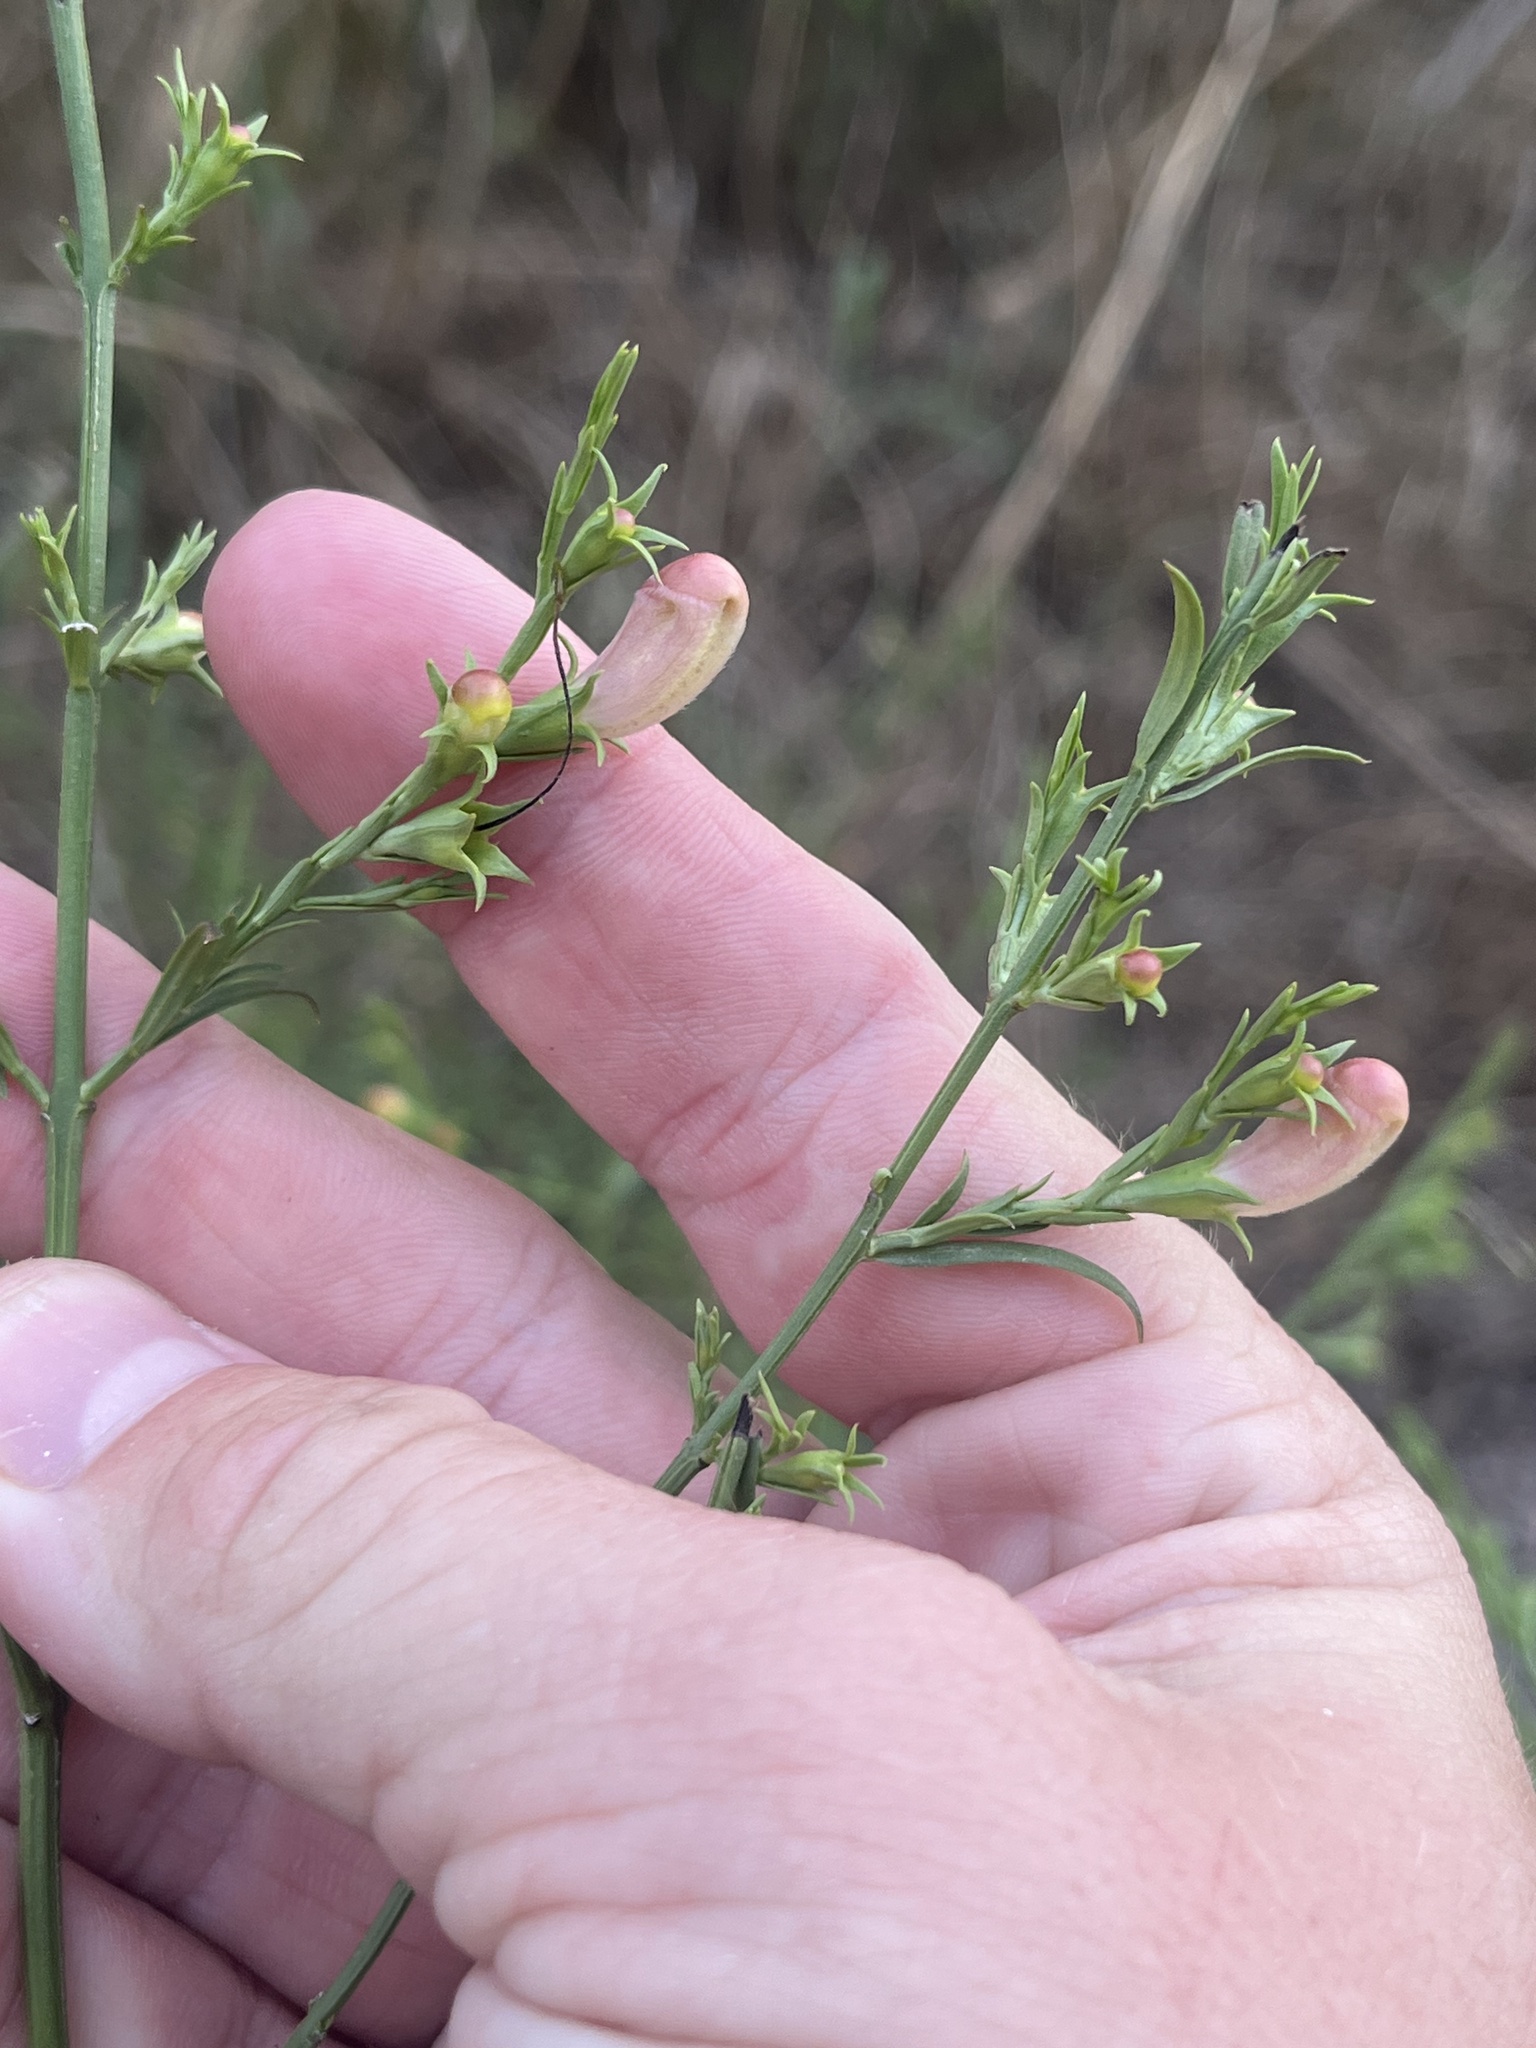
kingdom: Plantae
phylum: Tracheophyta
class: Magnoliopsida
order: Lamiales
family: Orobanchaceae
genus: Agalinis
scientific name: Agalinis heterophylla
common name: Prairie agalinis
